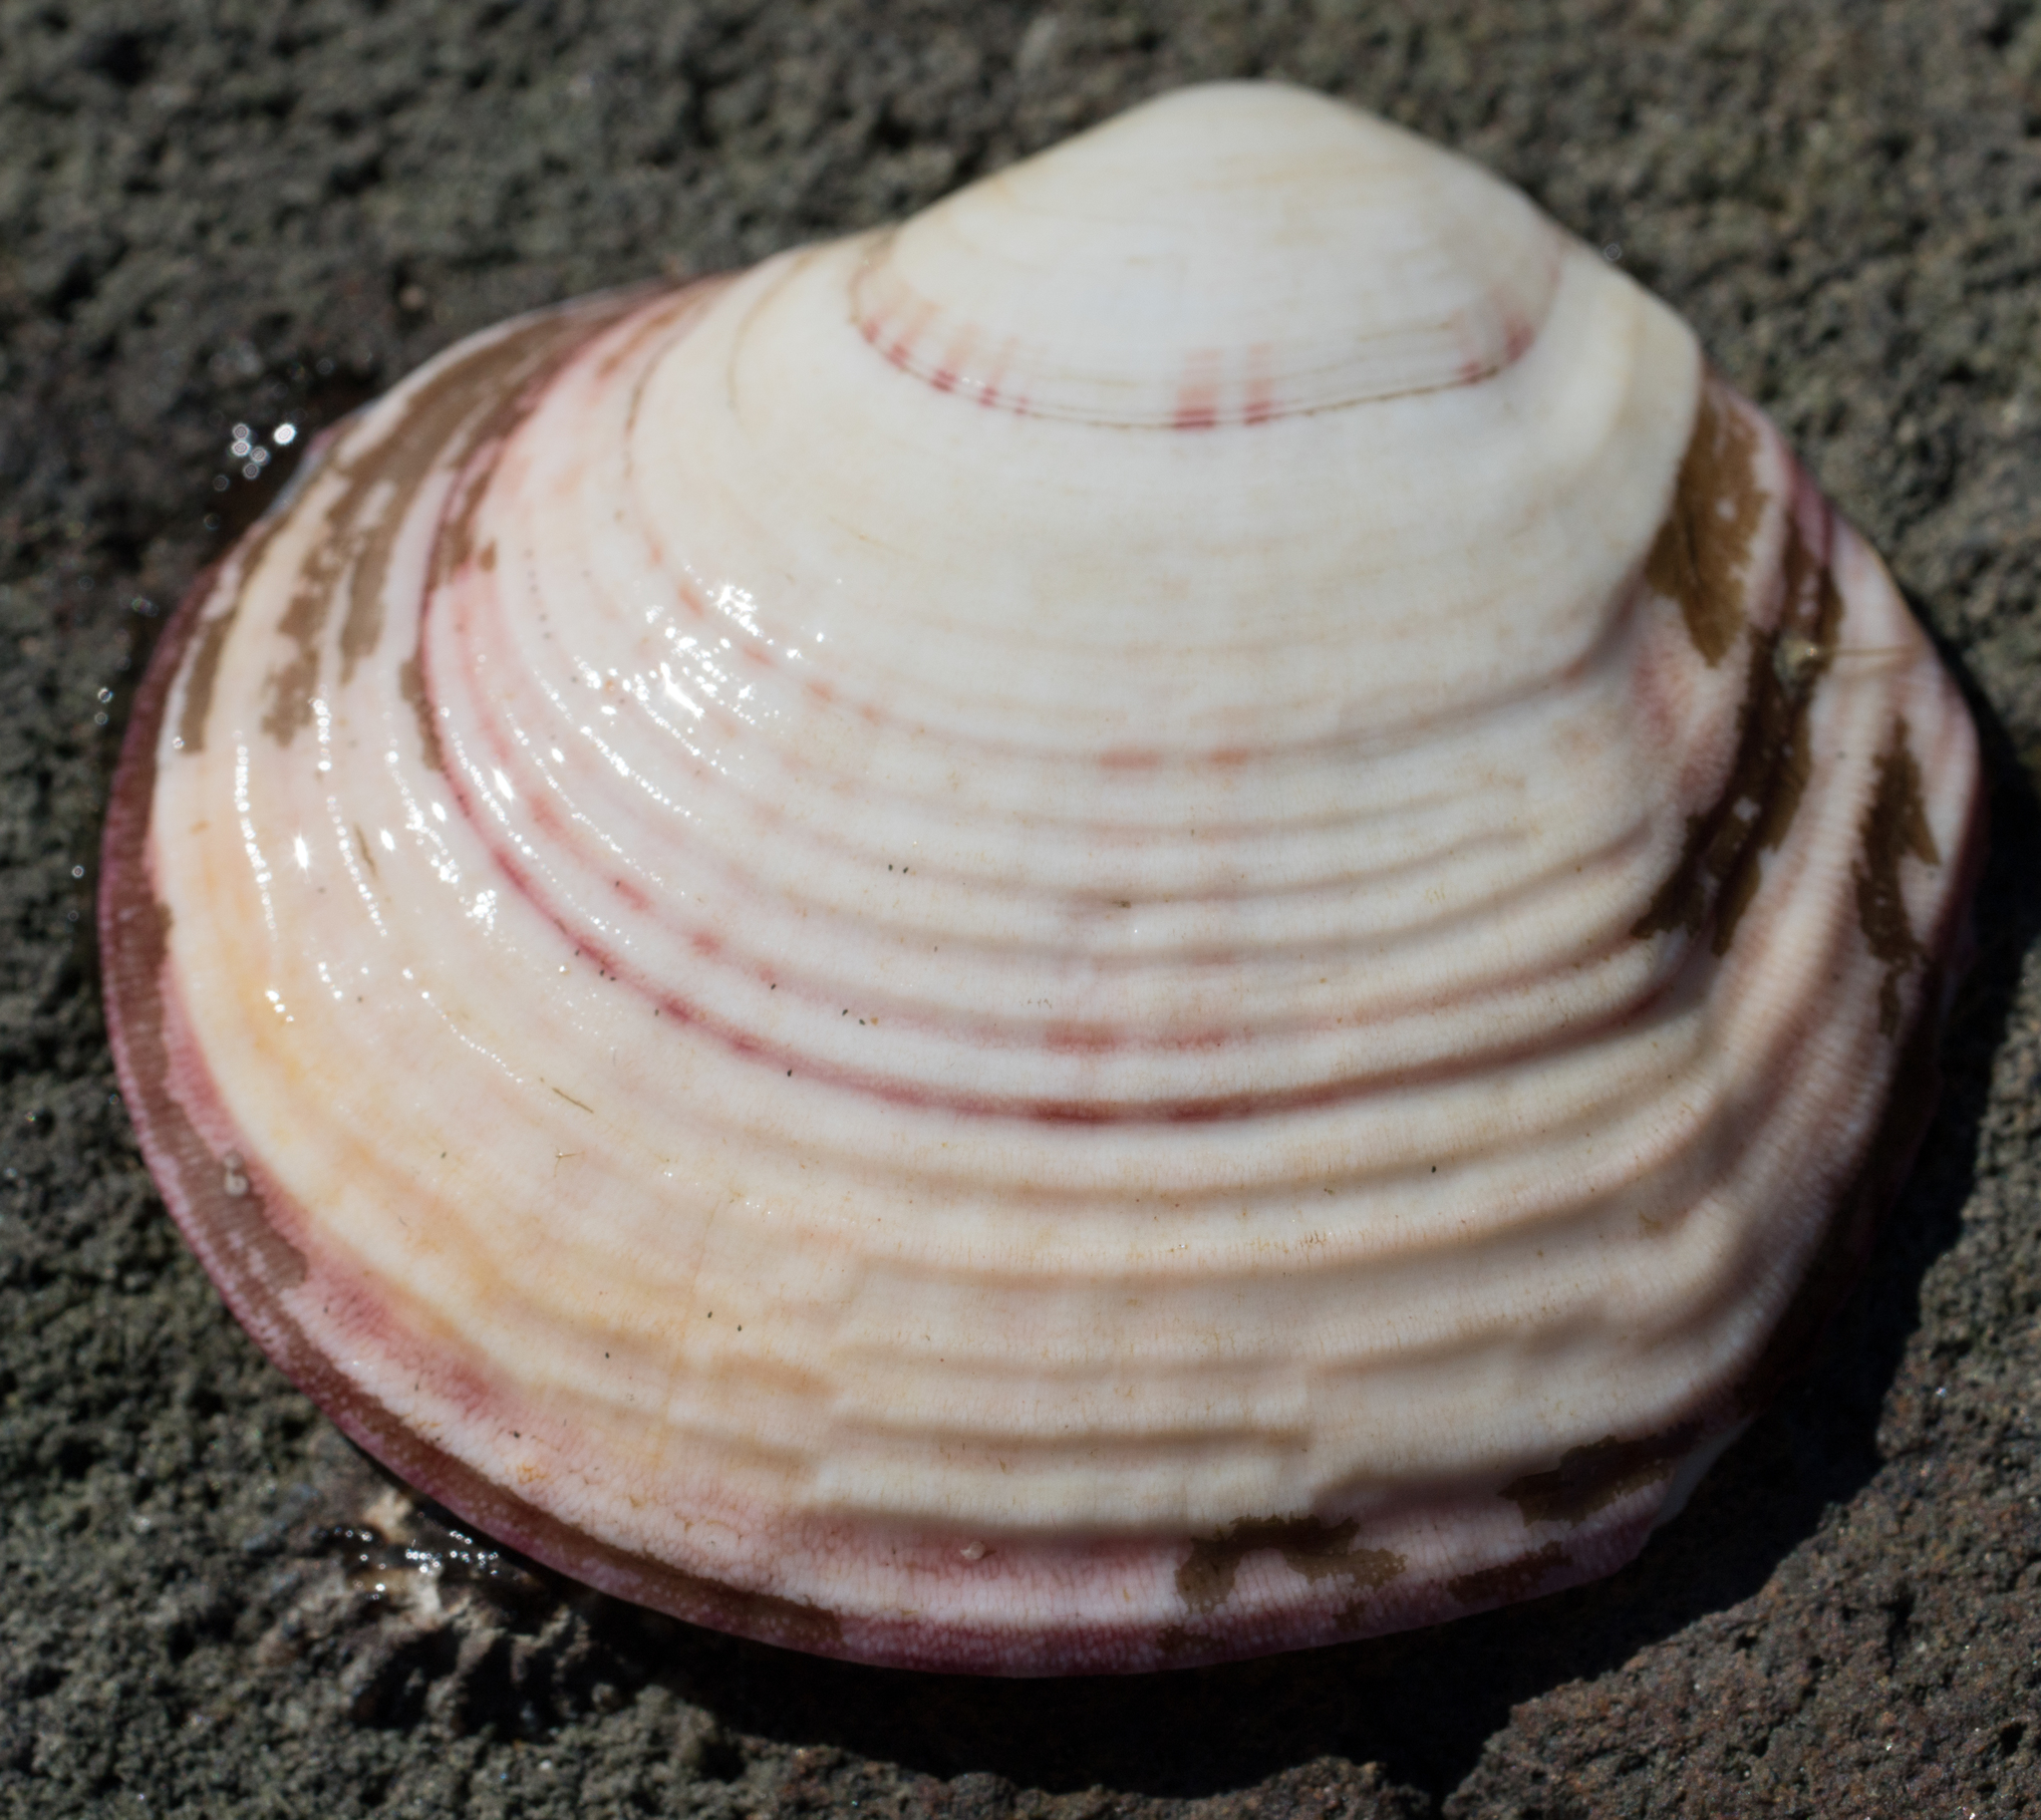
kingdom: Animalia
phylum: Mollusca
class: Bivalvia
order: Cardiida
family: Semelidae
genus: Semele
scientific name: Semele decisa
